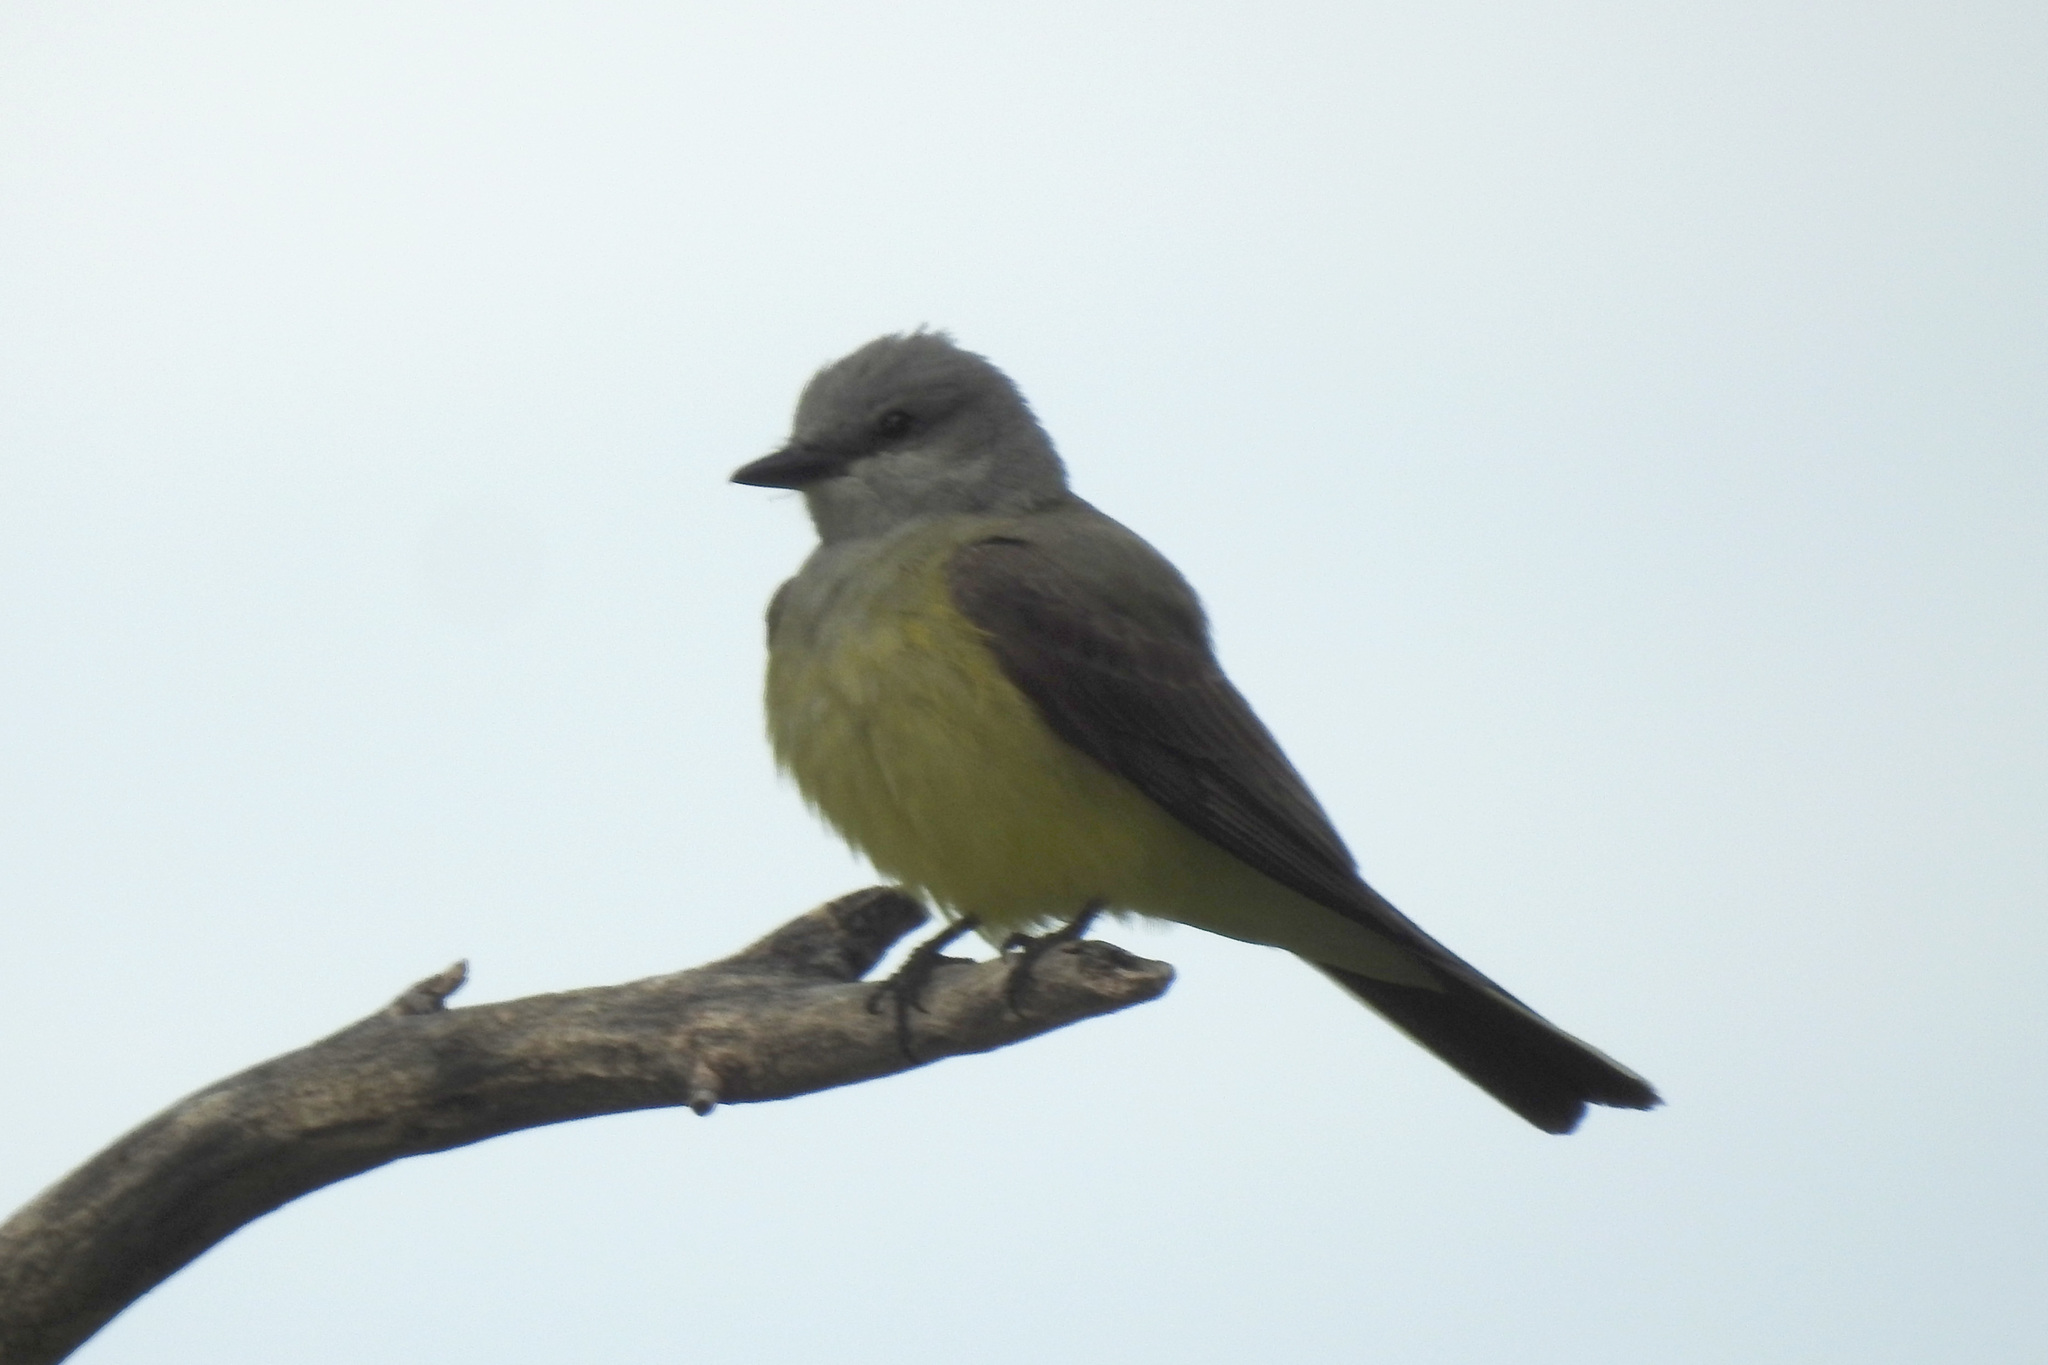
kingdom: Animalia
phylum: Chordata
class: Aves
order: Passeriformes
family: Tyrannidae
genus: Tyrannus
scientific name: Tyrannus verticalis
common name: Western kingbird
